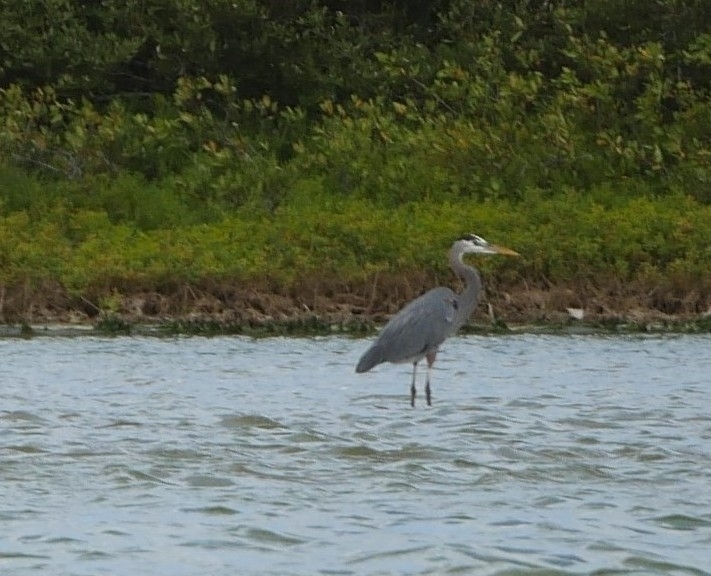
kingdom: Animalia
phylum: Chordata
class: Aves
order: Pelecaniformes
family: Ardeidae
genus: Ardea
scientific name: Ardea herodias
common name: Great blue heron
